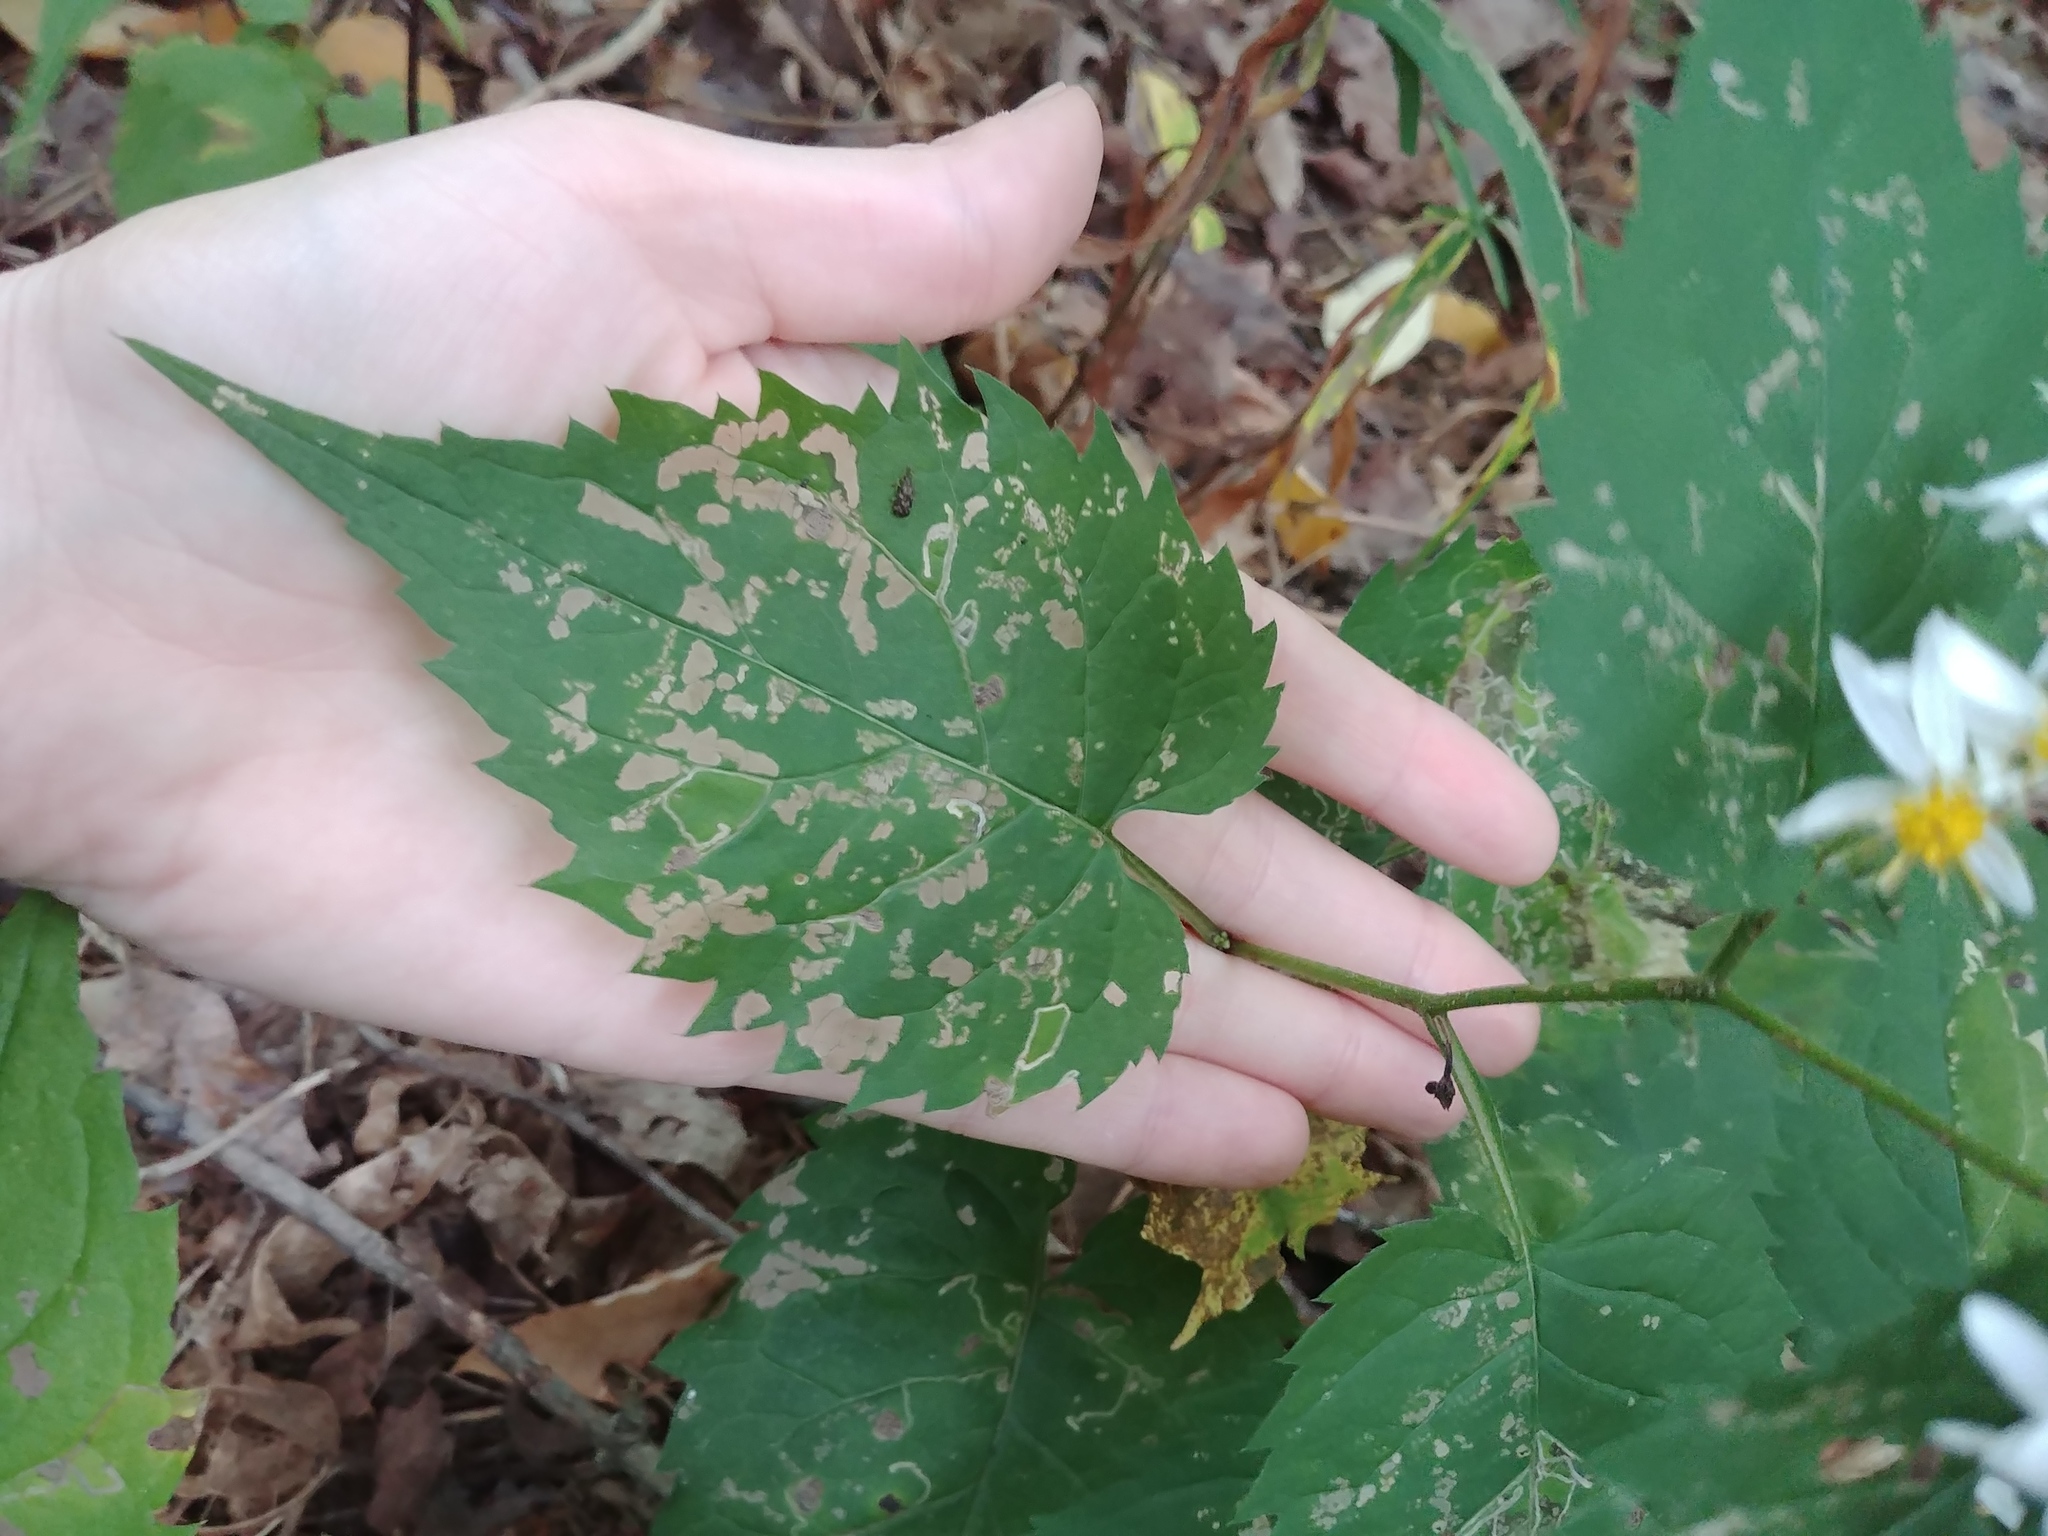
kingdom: Plantae
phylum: Tracheophyta
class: Magnoliopsida
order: Asterales
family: Asteraceae
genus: Eurybia
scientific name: Eurybia divaricata
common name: White wood aster
